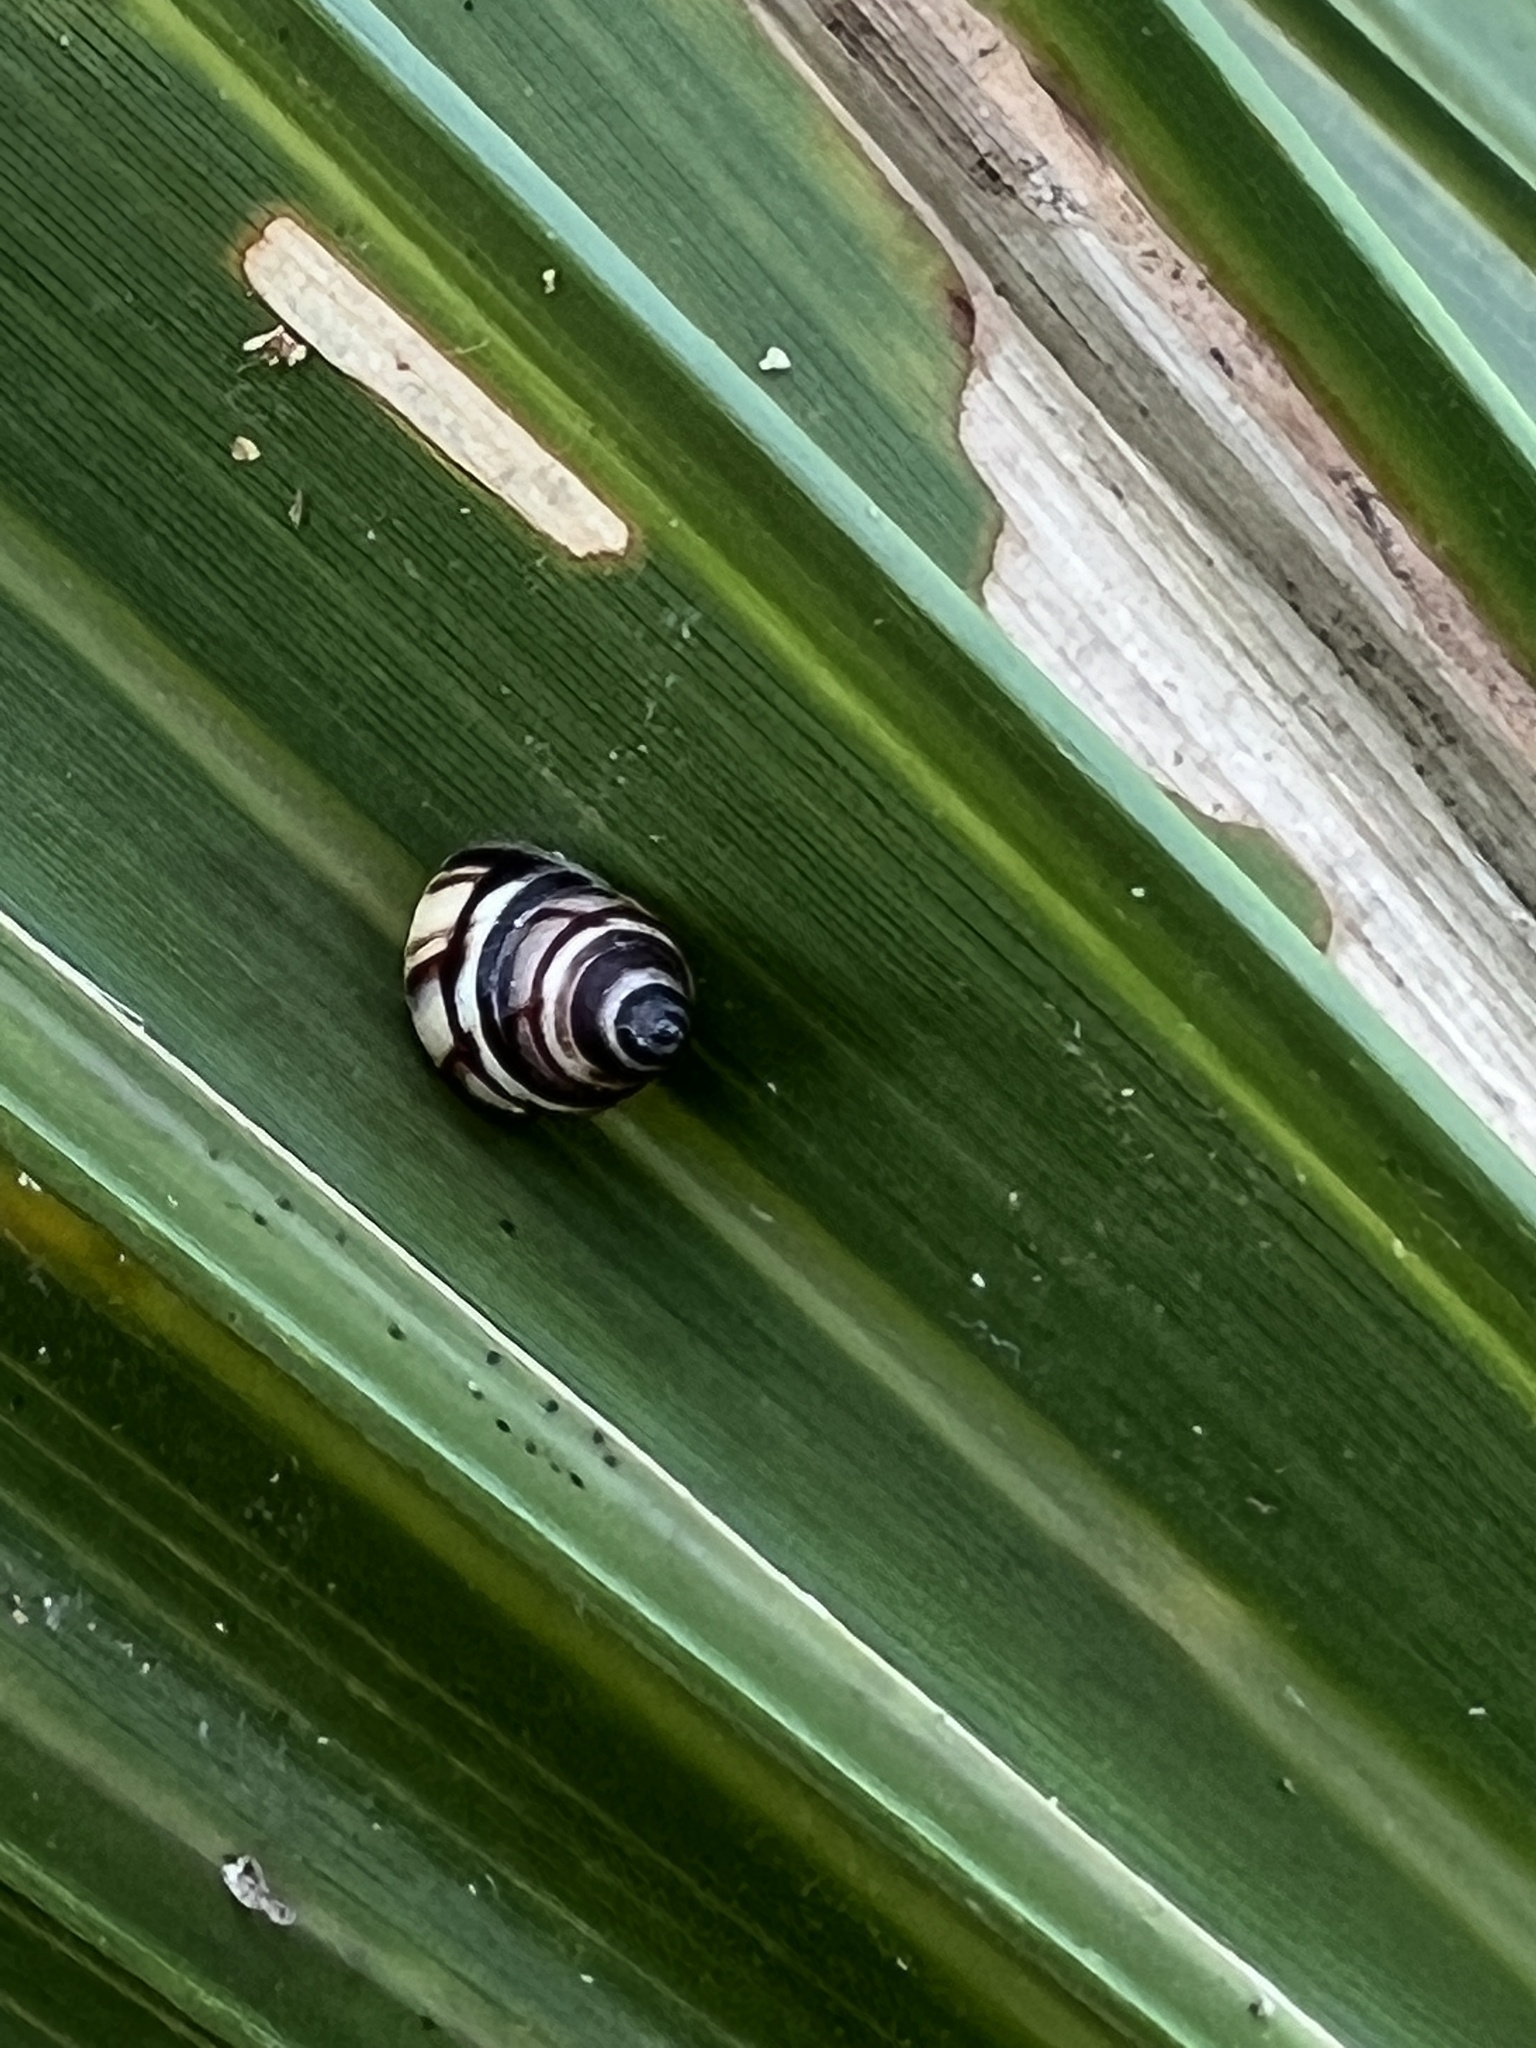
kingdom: Animalia
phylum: Mollusca
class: Gastropoda
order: Stylommatophora
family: Bulimulidae
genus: Drymaeus
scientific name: Drymaeus
